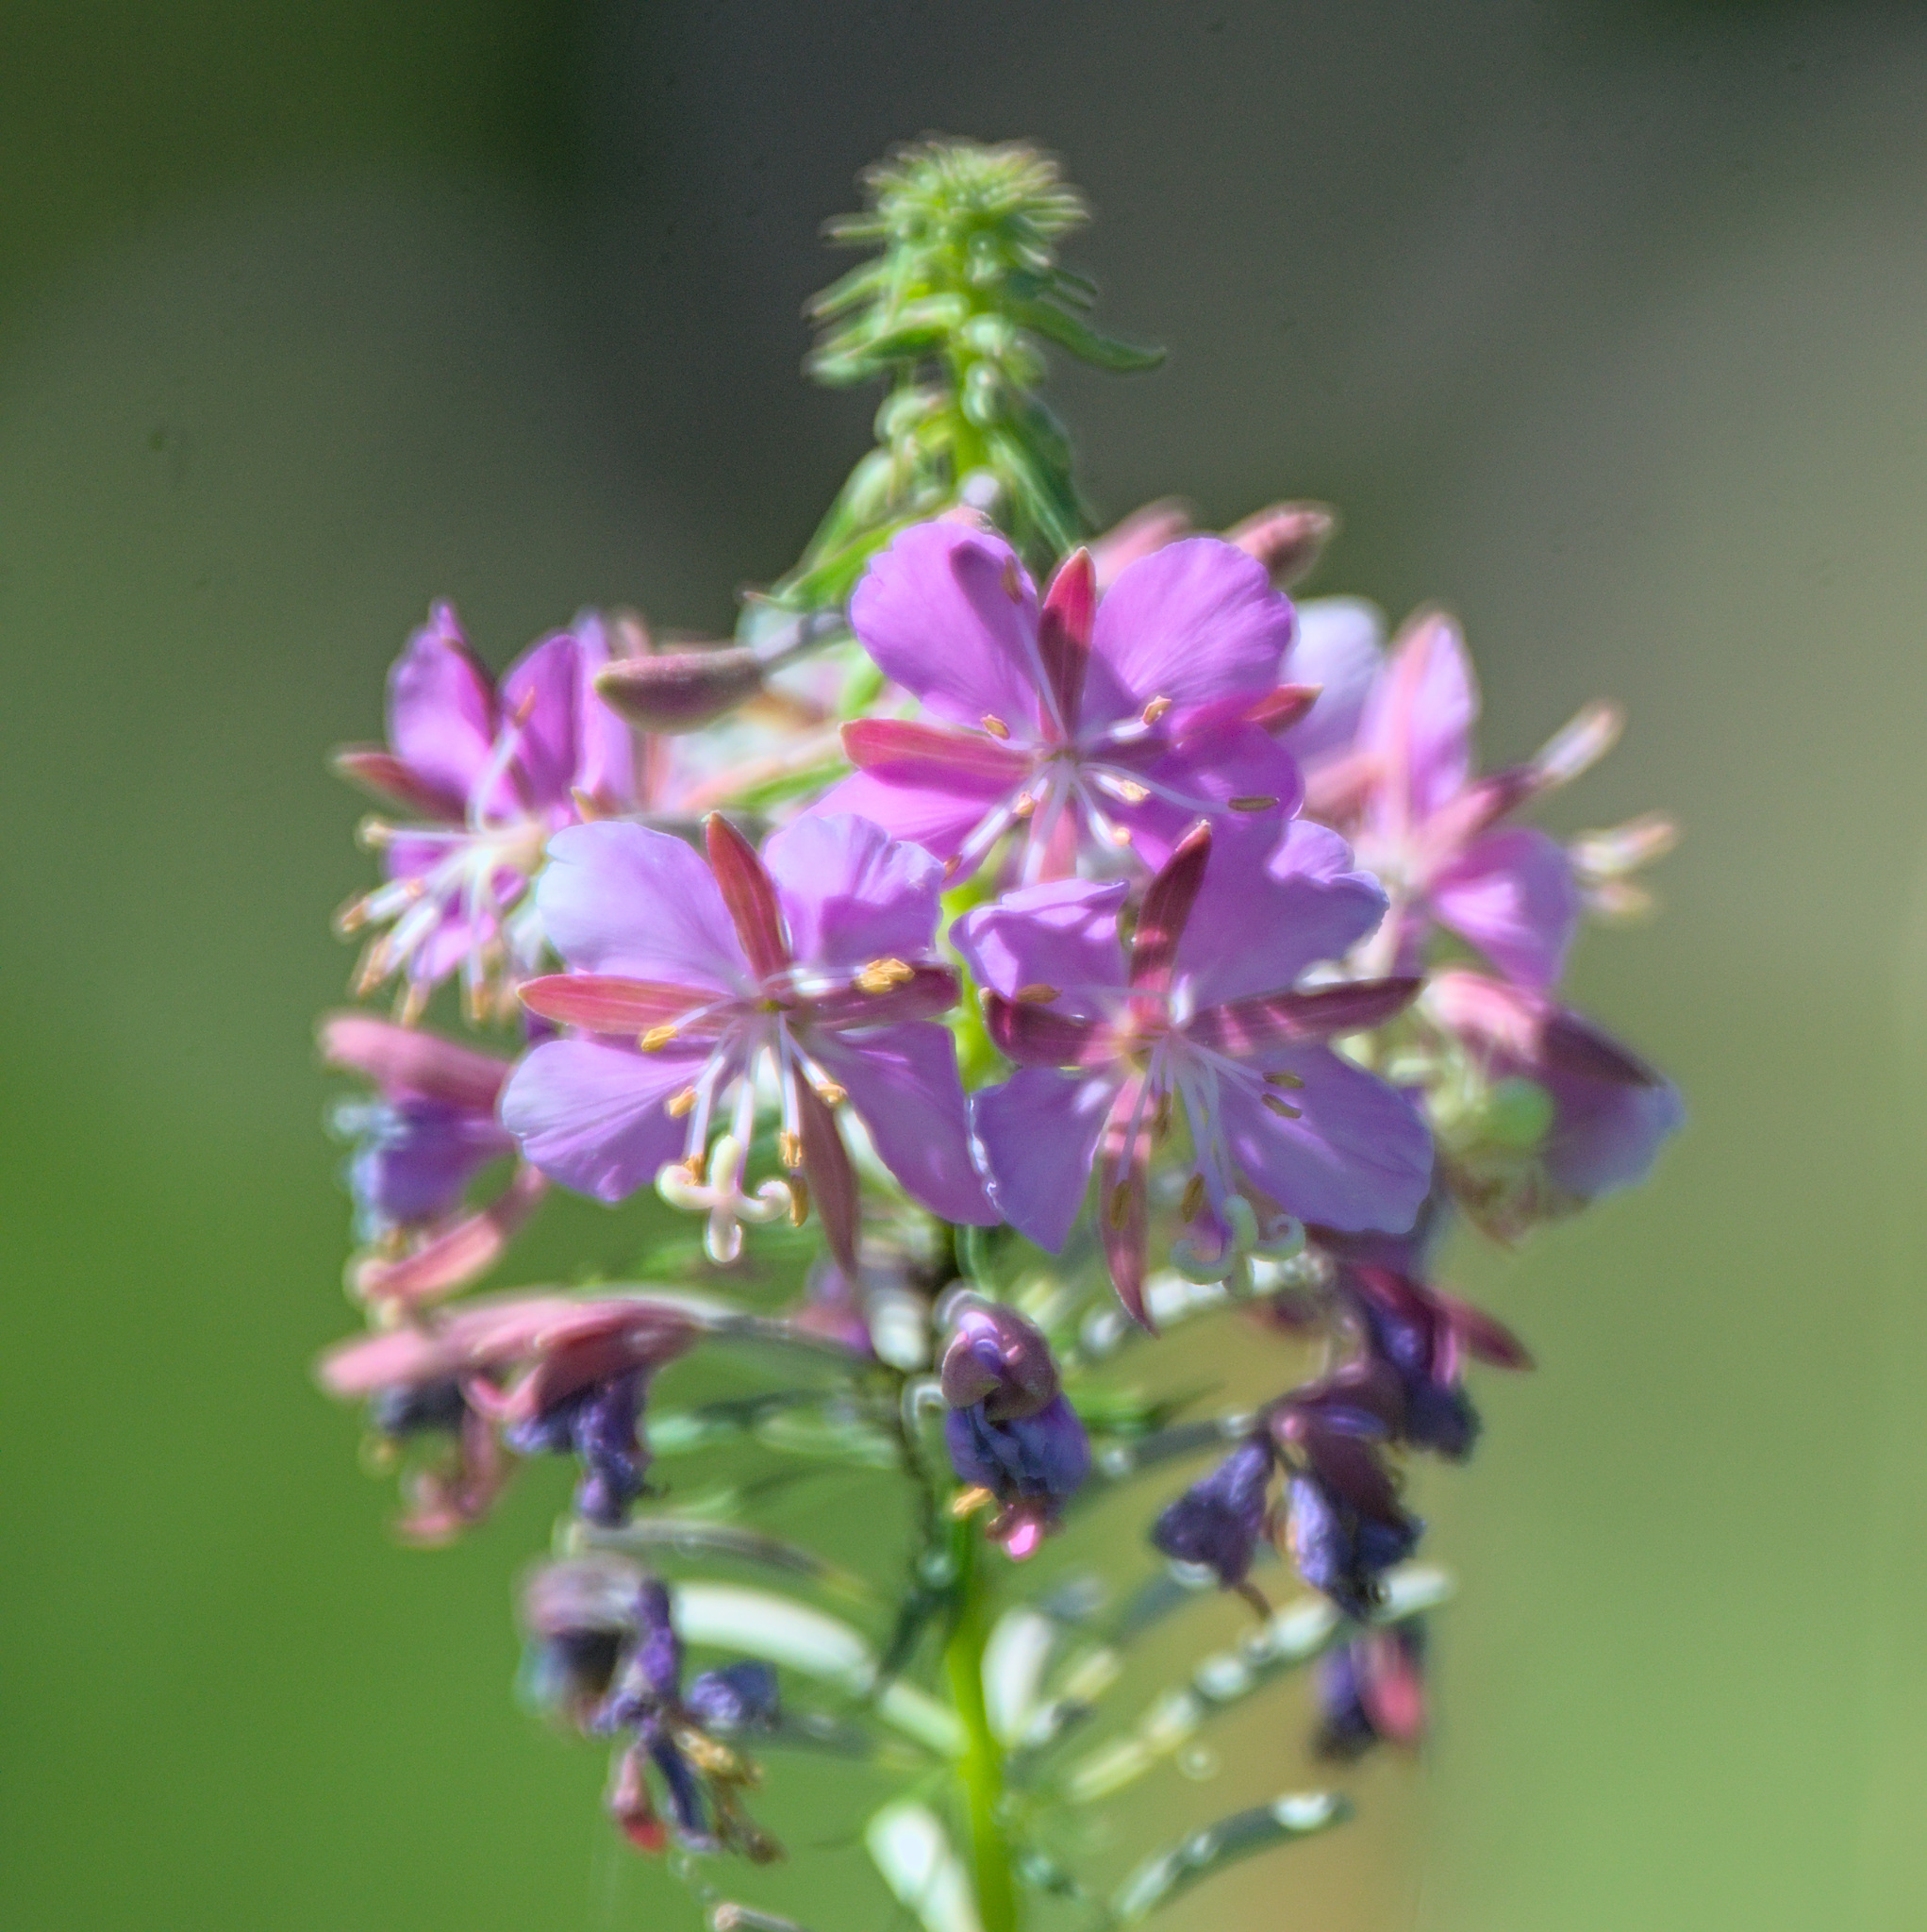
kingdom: Plantae
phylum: Tracheophyta
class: Magnoliopsida
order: Myrtales
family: Onagraceae
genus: Chamaenerion
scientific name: Chamaenerion angustifolium
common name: Fireweed
